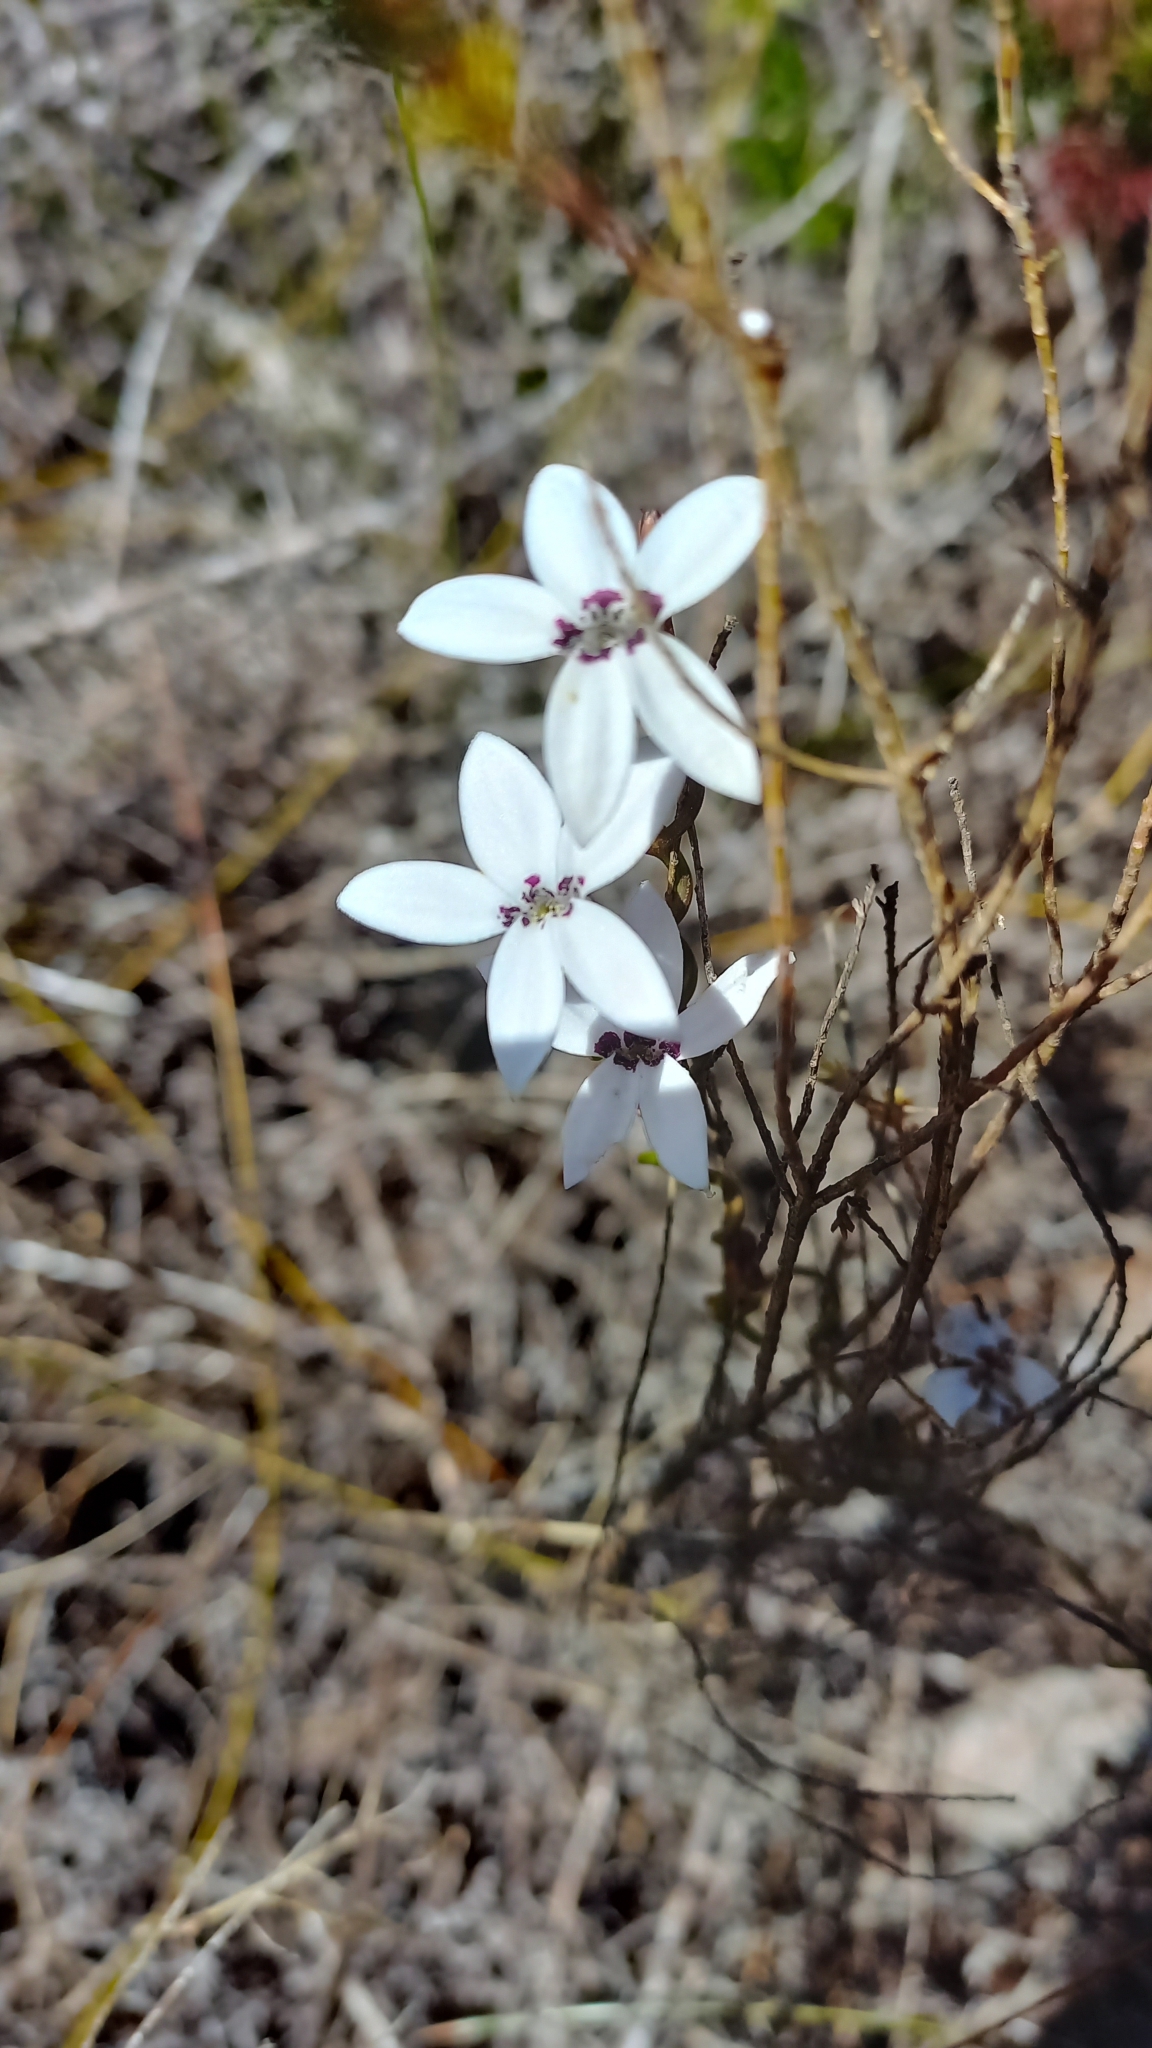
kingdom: Plantae
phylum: Tracheophyta
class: Magnoliopsida
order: Asterales
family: Campanulaceae
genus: Cyphia
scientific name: Cyphia volubilis
